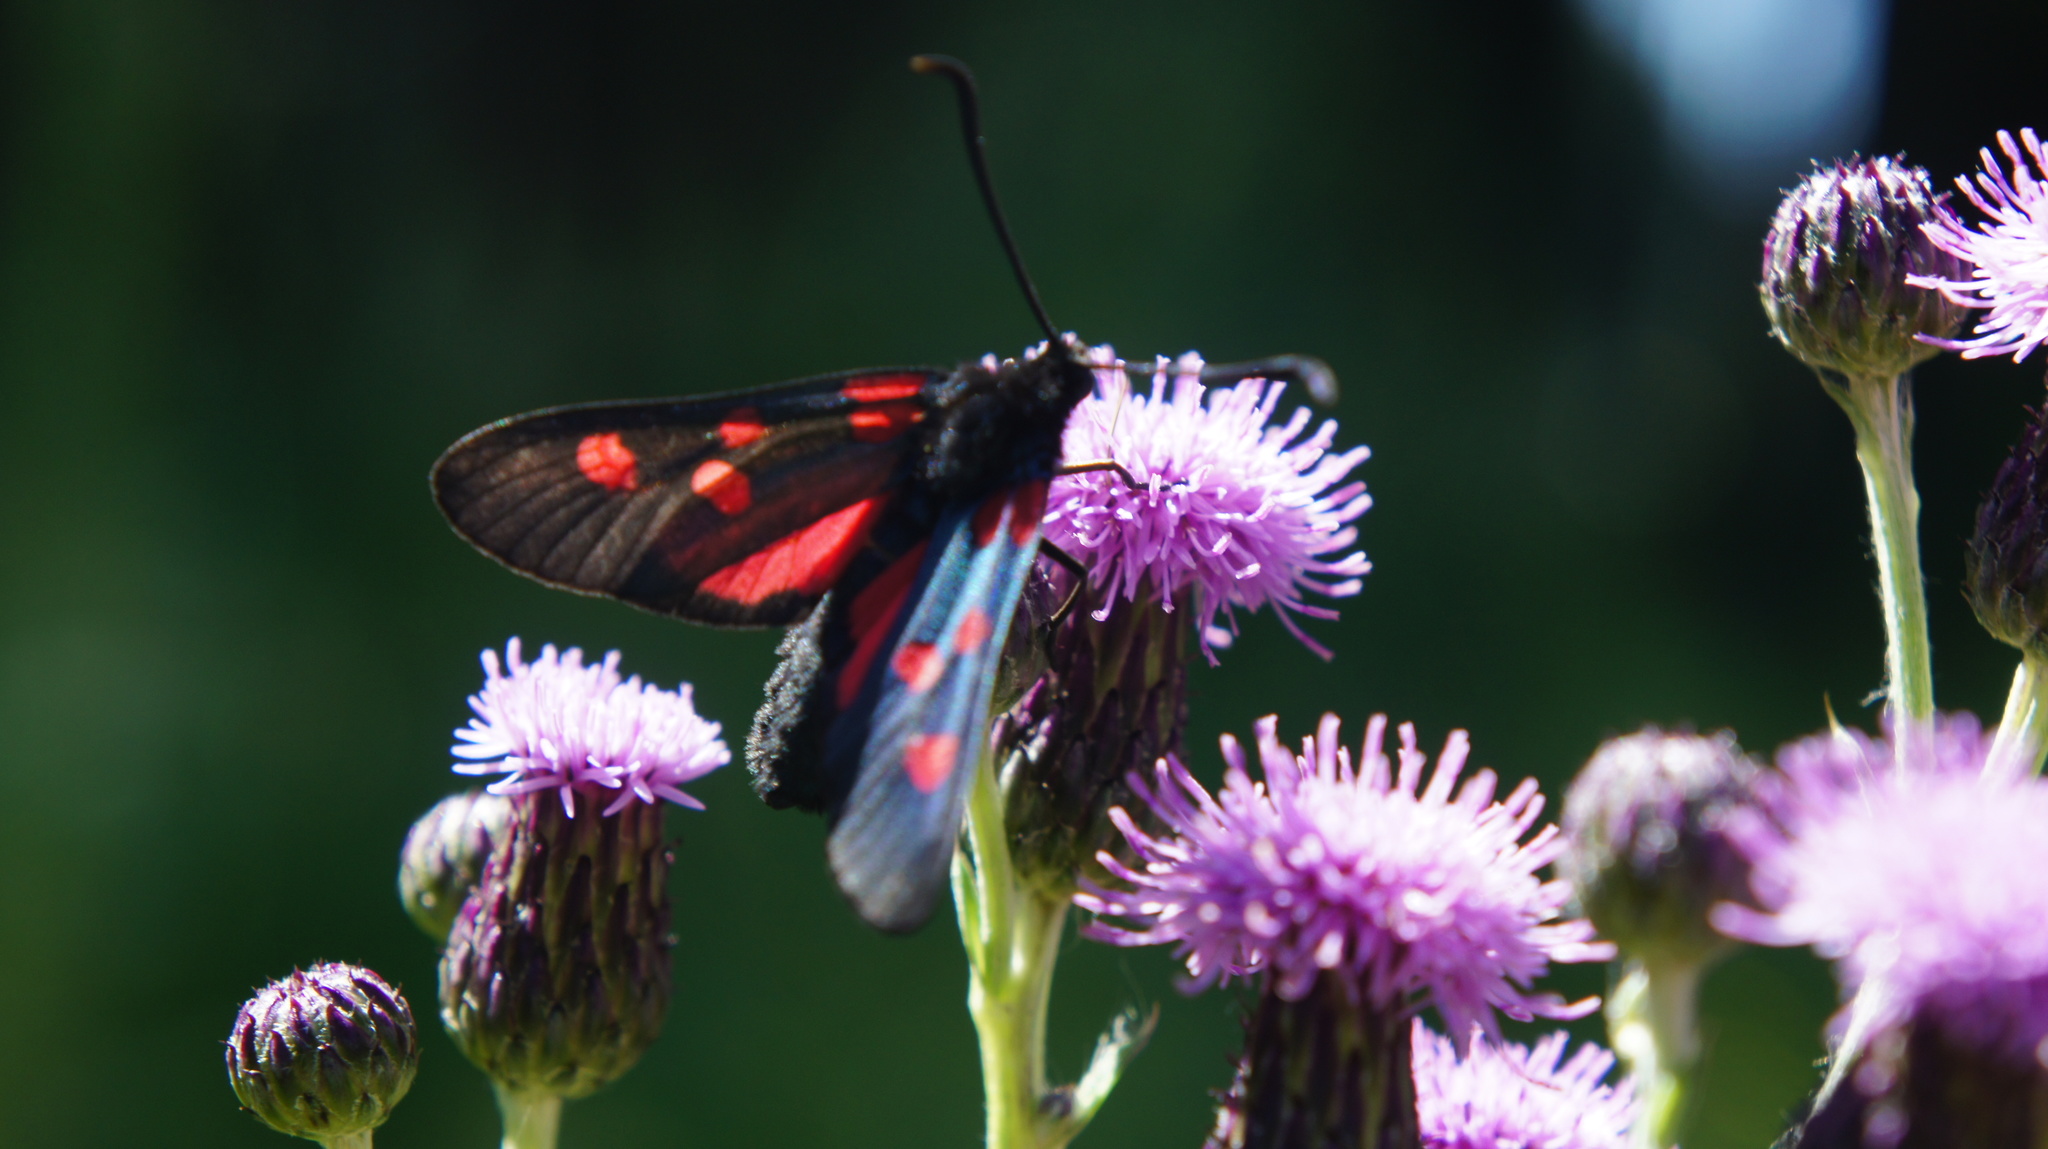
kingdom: Animalia
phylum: Arthropoda
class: Insecta
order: Lepidoptera
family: Zygaenidae
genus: Zygaena
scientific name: Zygaena lonicerae
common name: Narrow-bordered five-spot burnet
